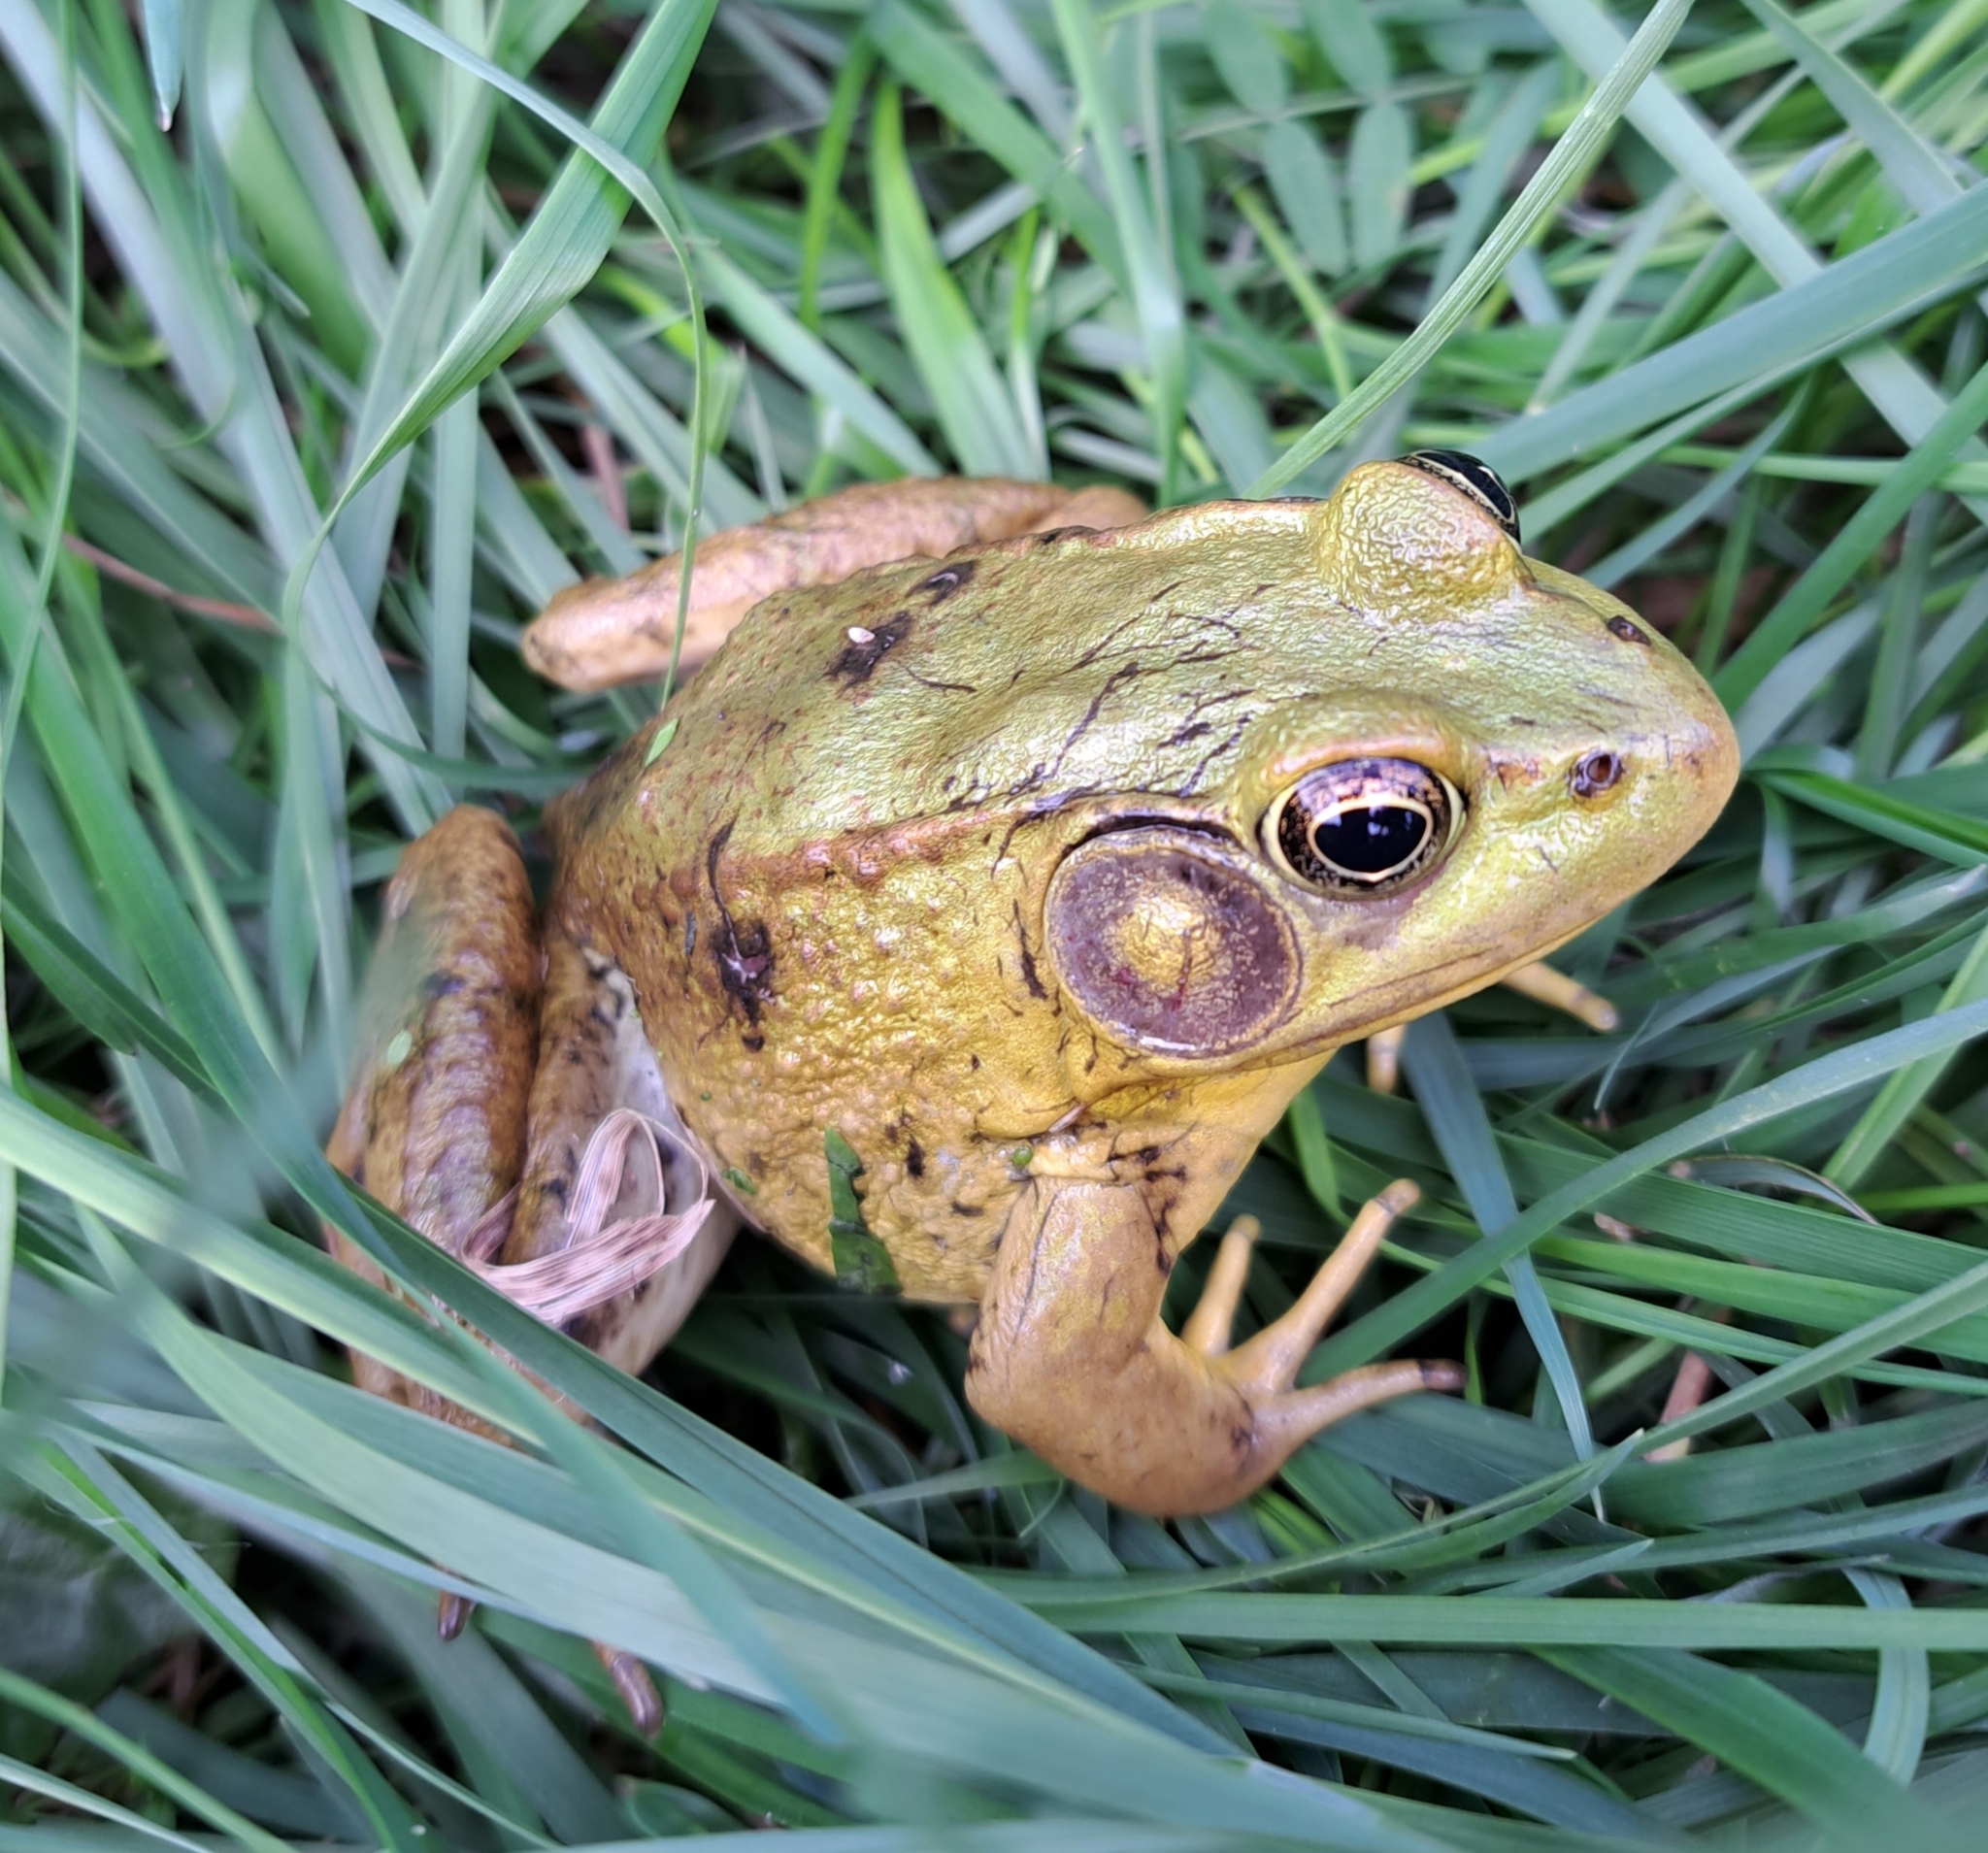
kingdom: Animalia
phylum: Chordata
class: Amphibia
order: Anura
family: Ranidae
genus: Lithobates
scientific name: Lithobates clamitans
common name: Green frog
